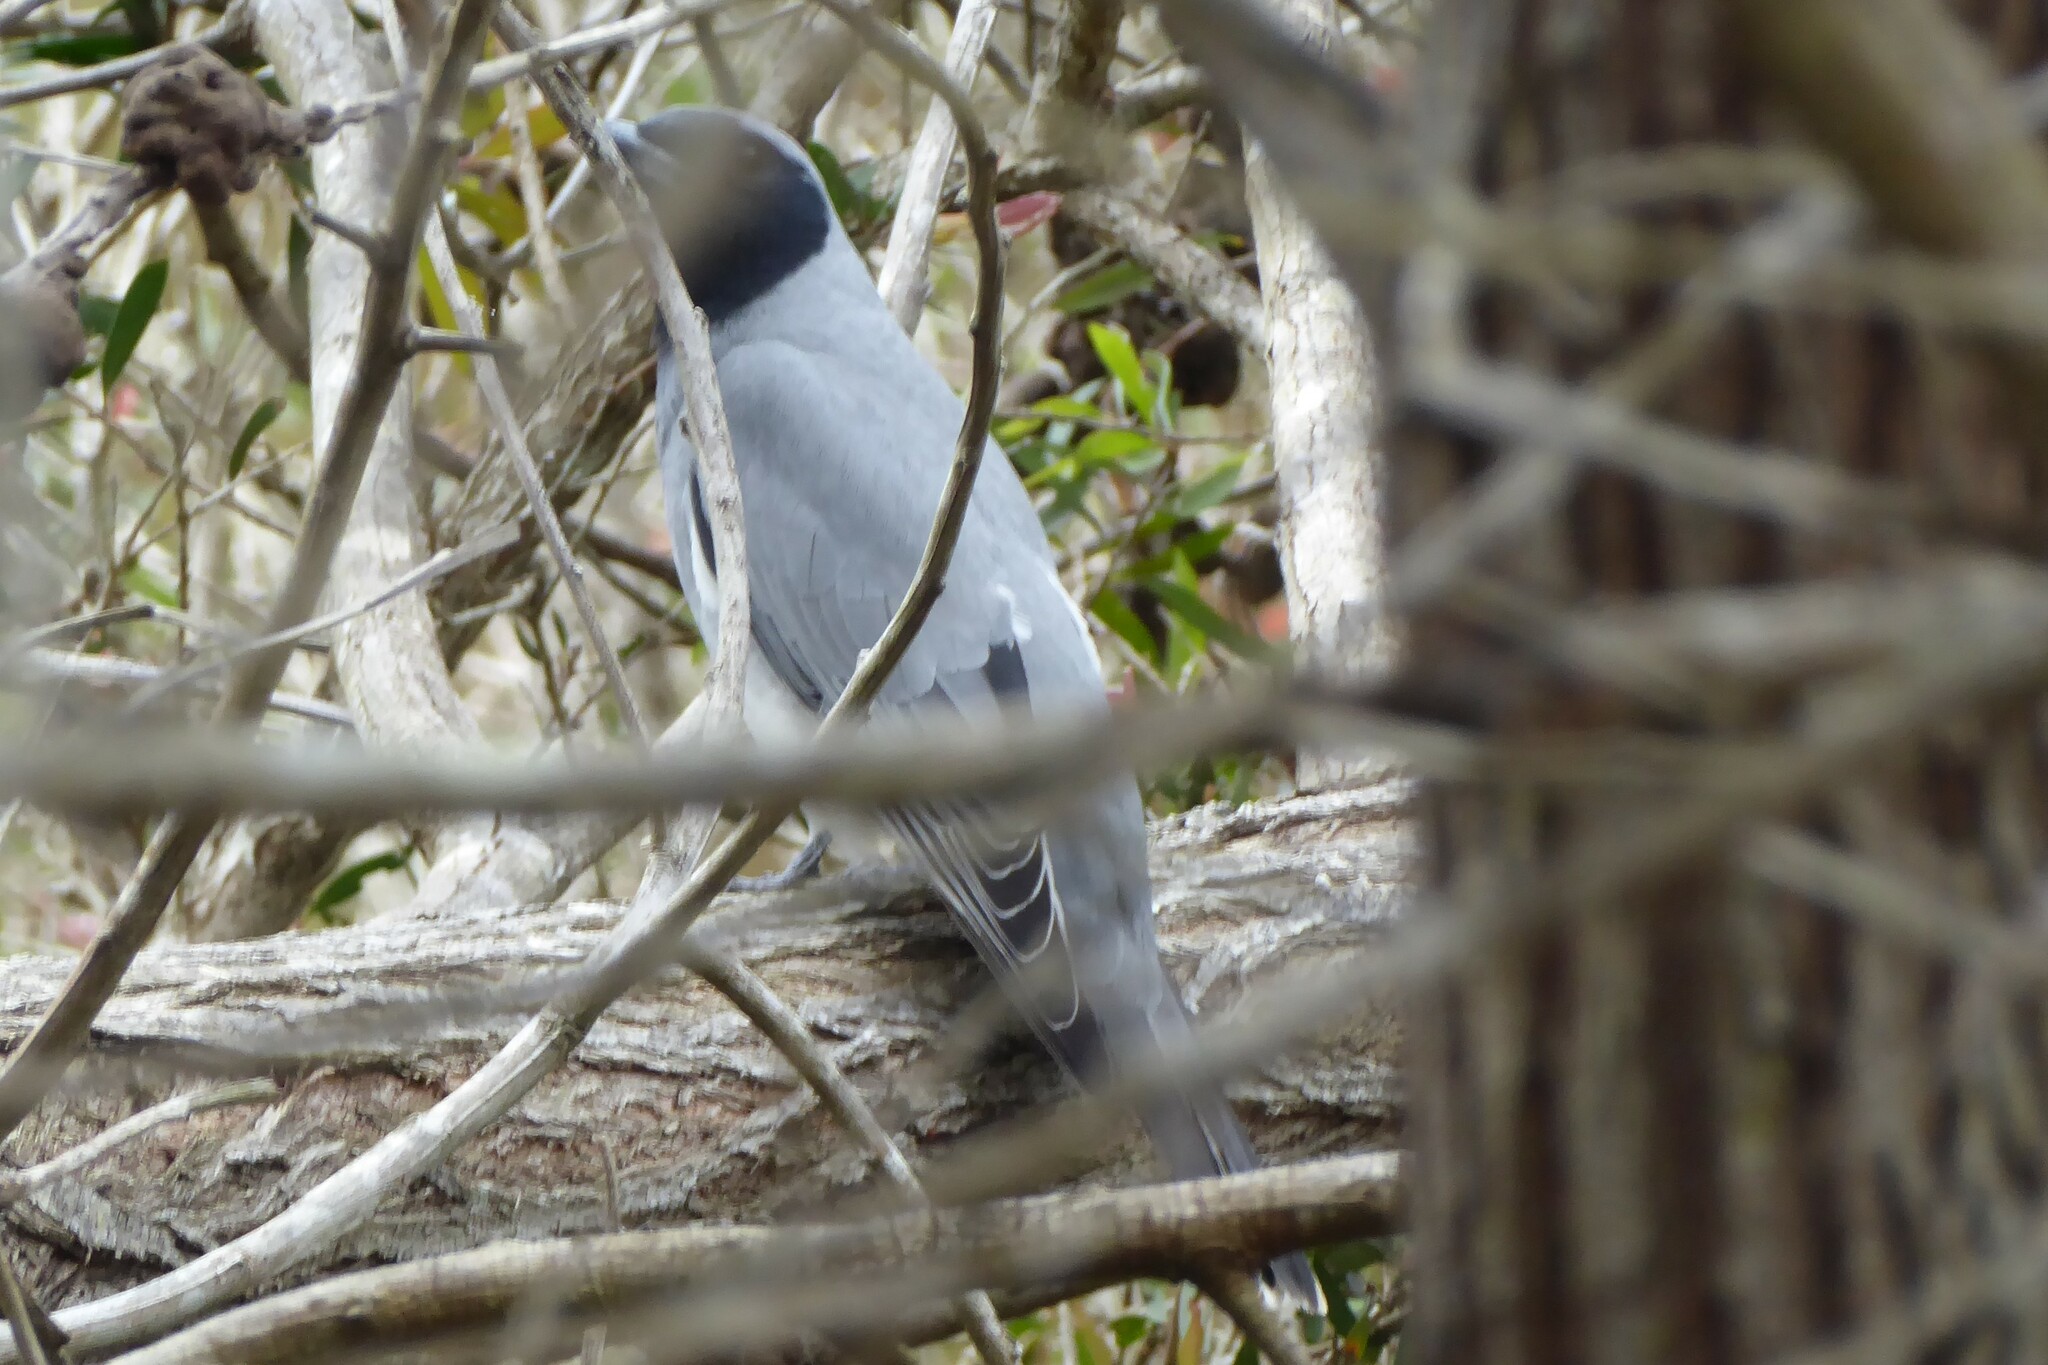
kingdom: Animalia
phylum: Chordata
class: Aves
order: Passeriformes
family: Campephagidae
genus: Coracina
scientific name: Coracina novaehollandiae
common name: Black-faced cuckooshrike
